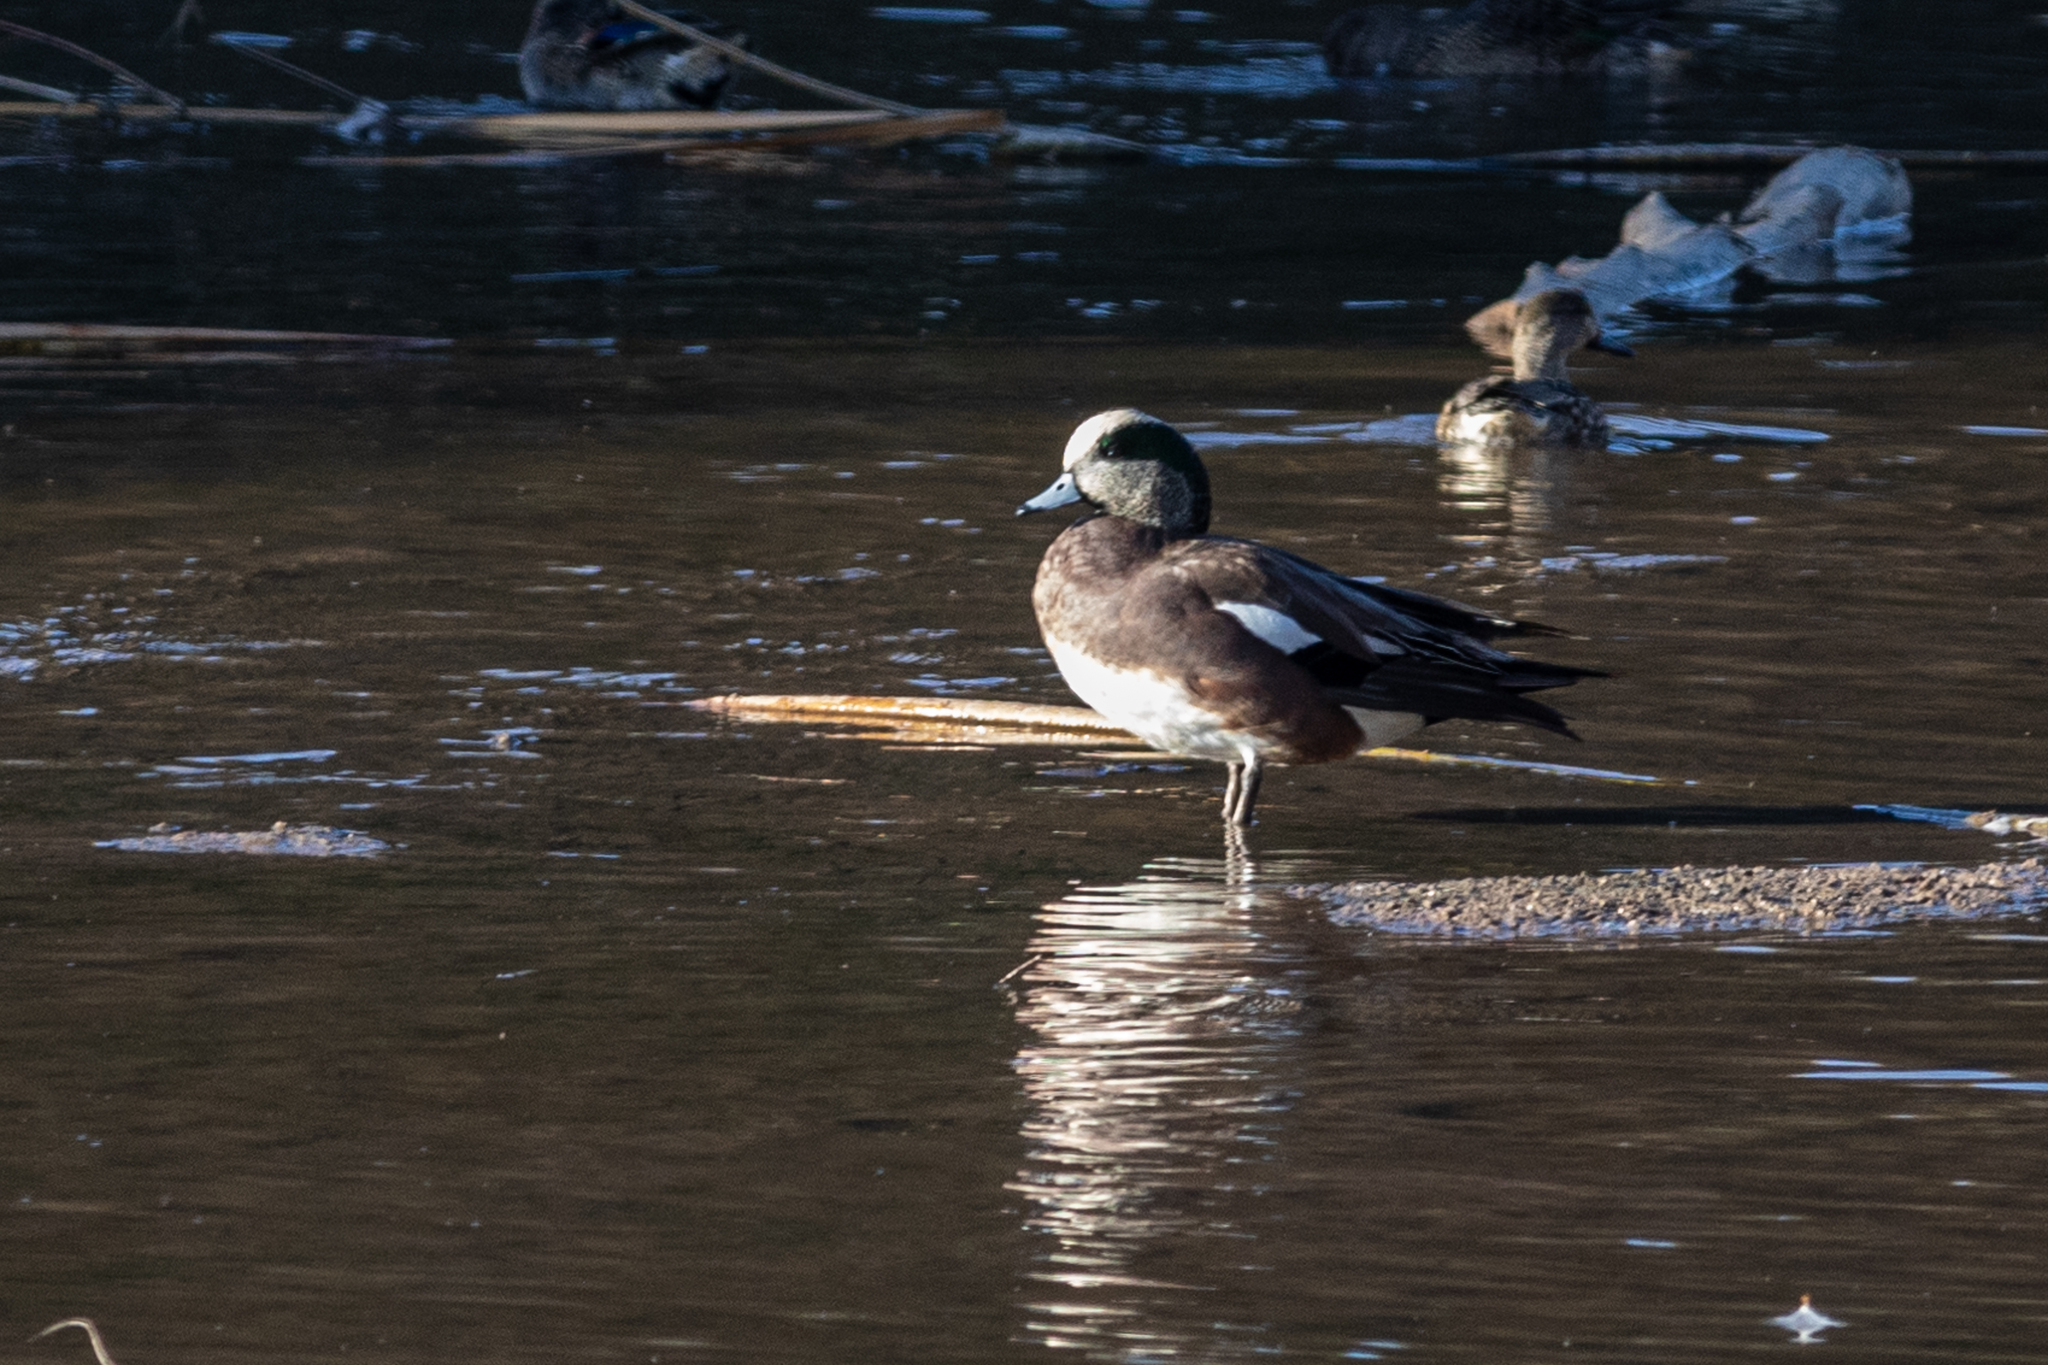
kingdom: Animalia
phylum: Chordata
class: Aves
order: Anseriformes
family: Anatidae
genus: Mareca
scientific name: Mareca americana
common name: American wigeon
